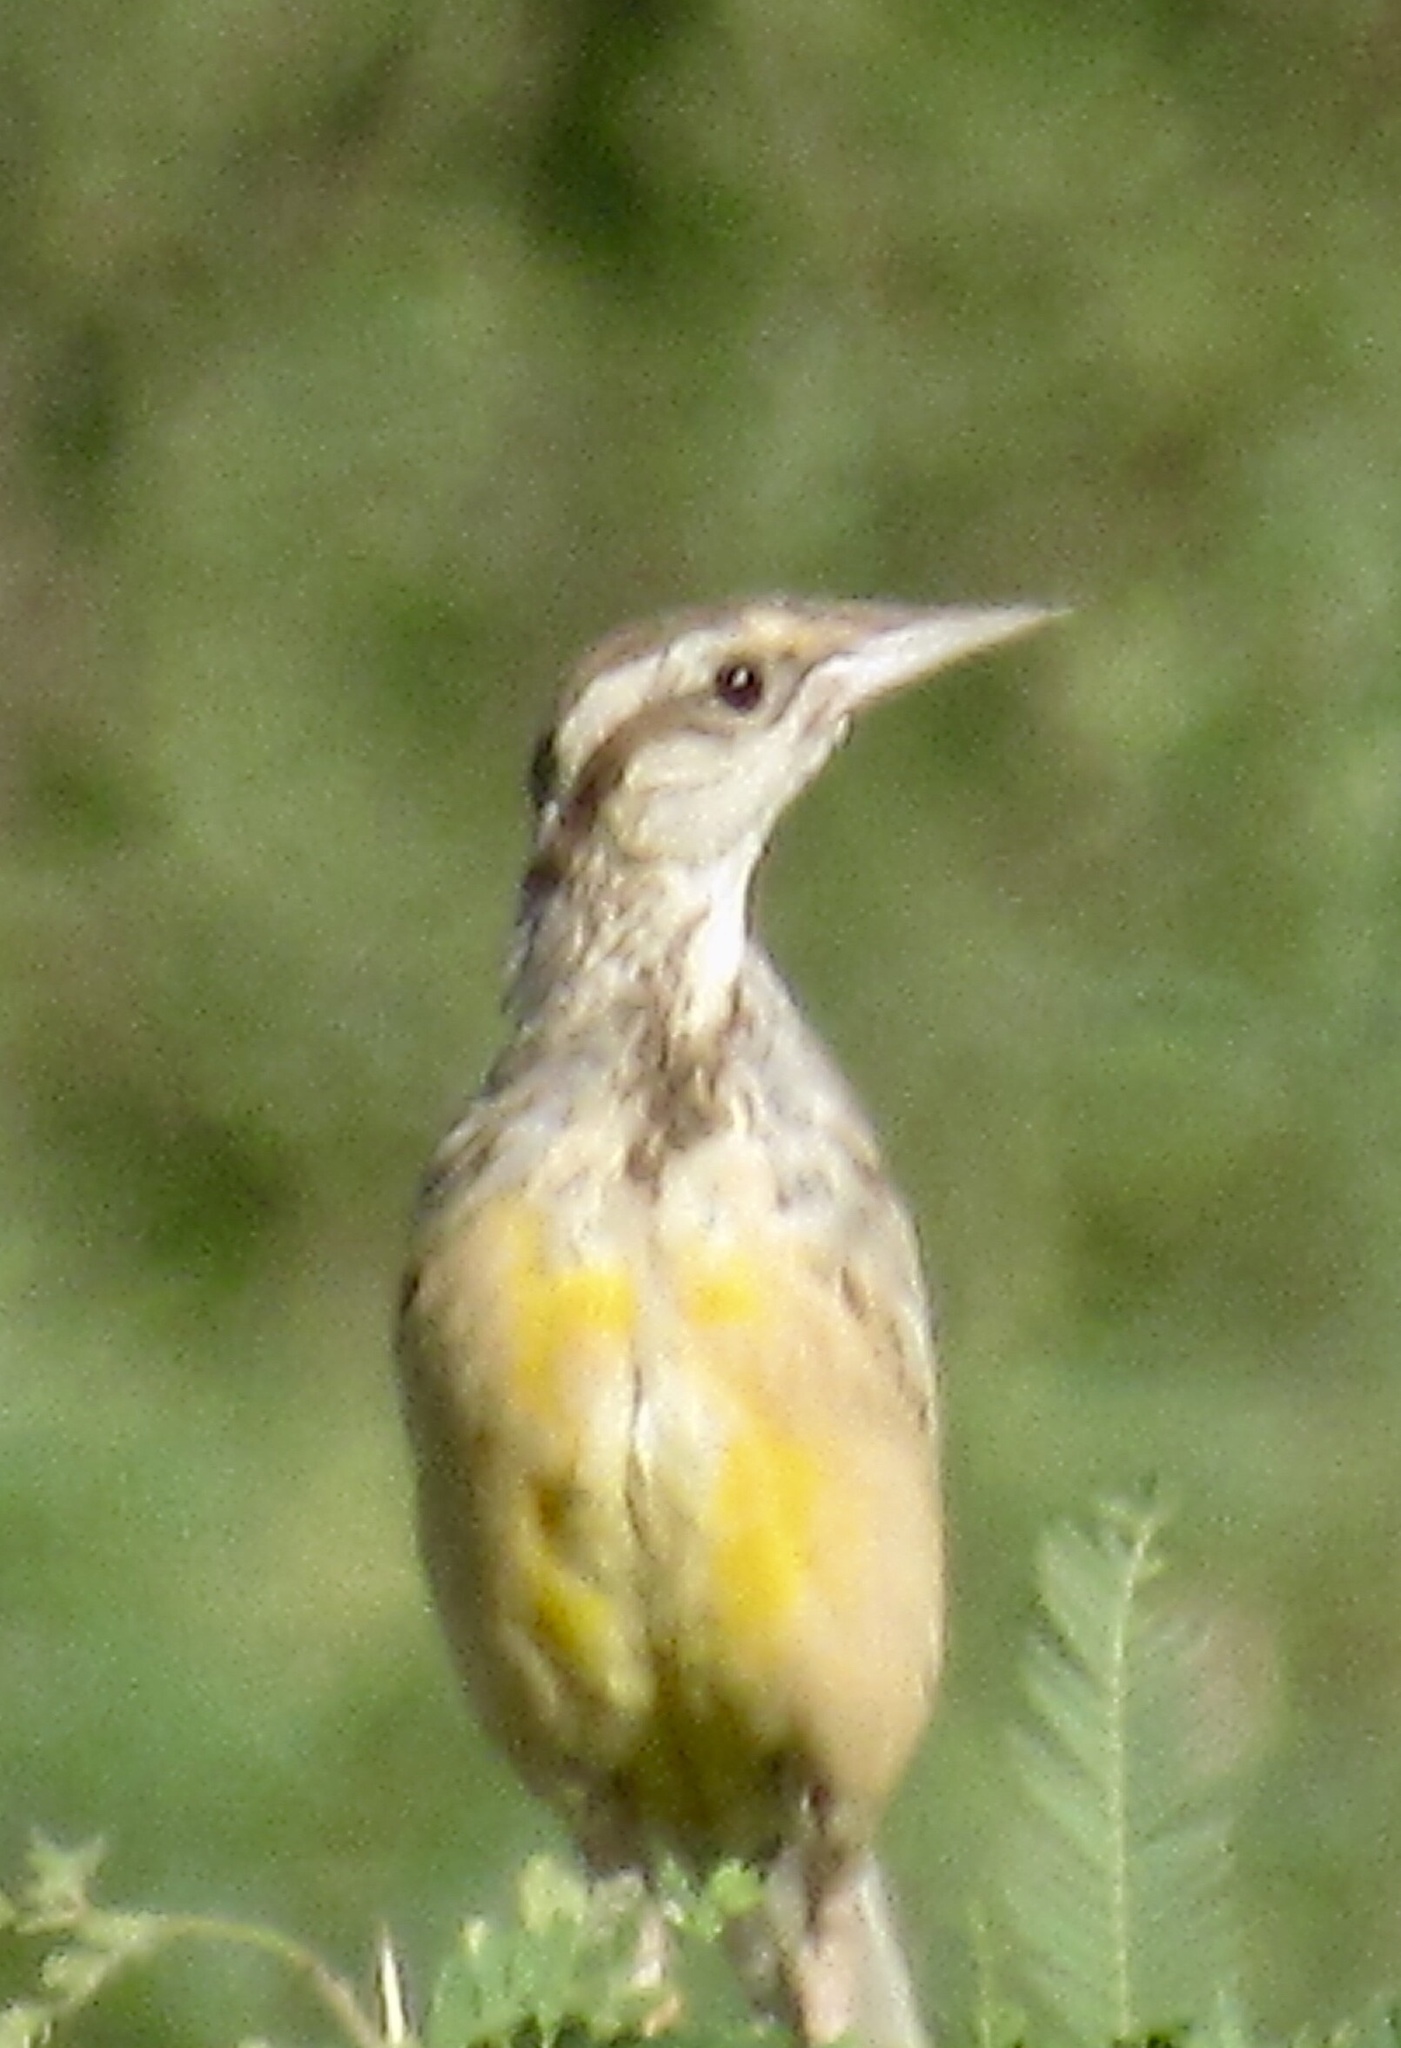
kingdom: Animalia
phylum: Chordata
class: Aves
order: Passeriformes
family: Icteridae
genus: Sturnella
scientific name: Sturnella lilianae
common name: Lilian's meadowlark
